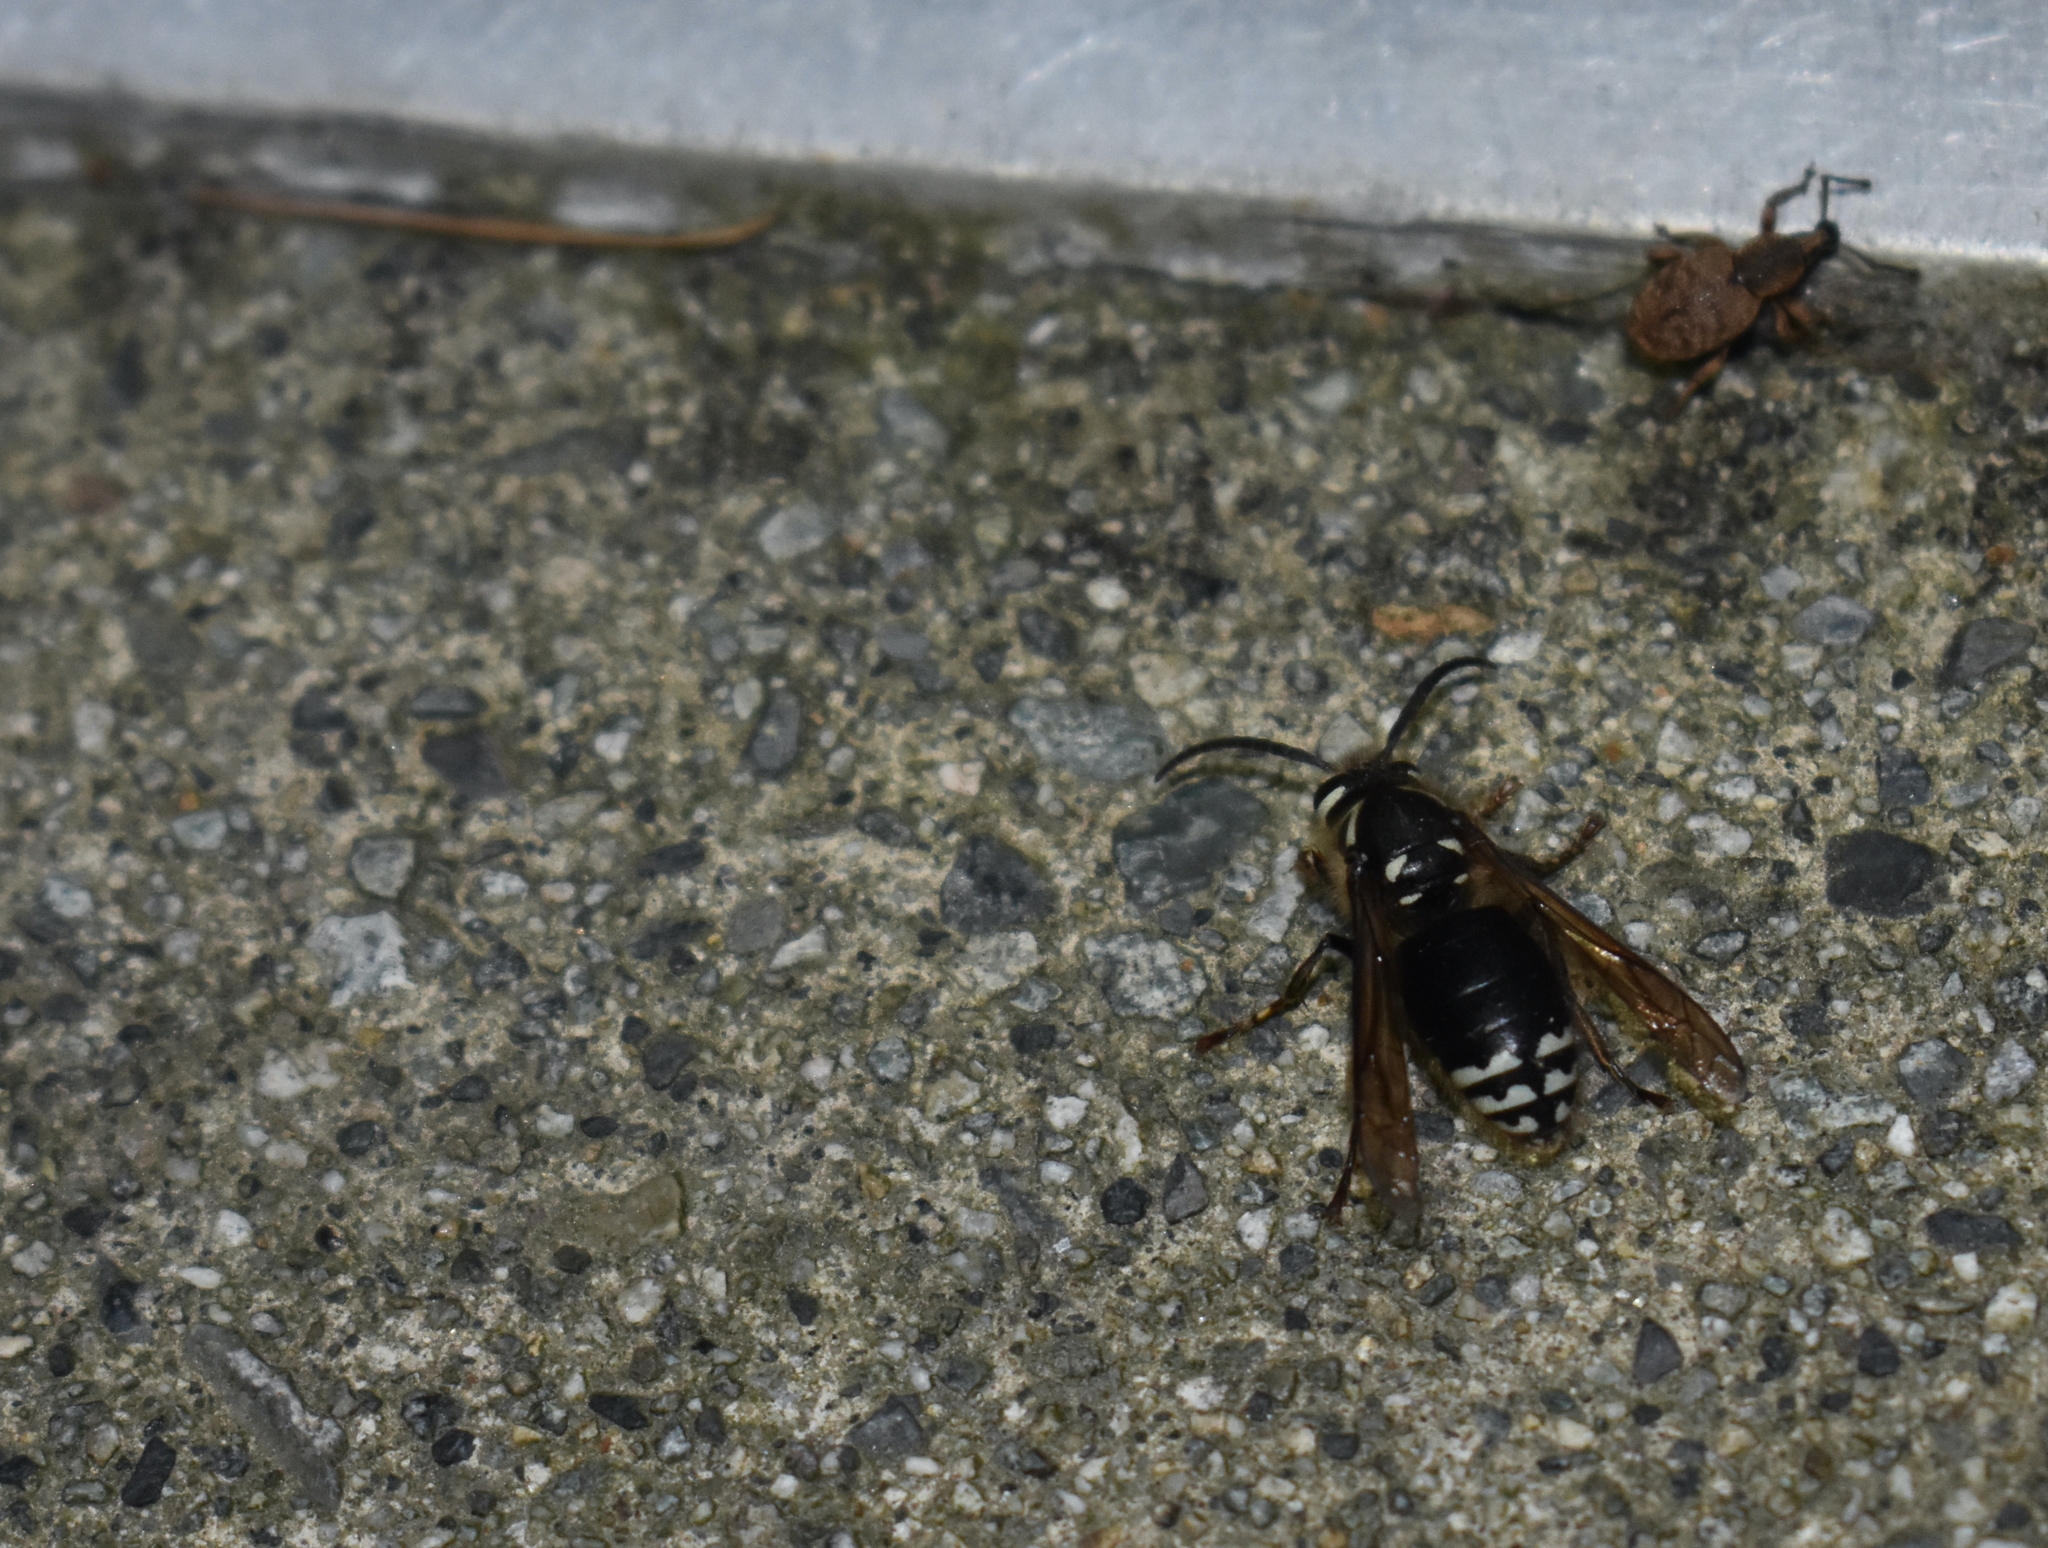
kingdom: Animalia
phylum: Arthropoda
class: Insecta
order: Hymenoptera
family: Vespidae
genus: Dolichovespula
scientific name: Dolichovespula maculata
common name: Bald-faced hornet
